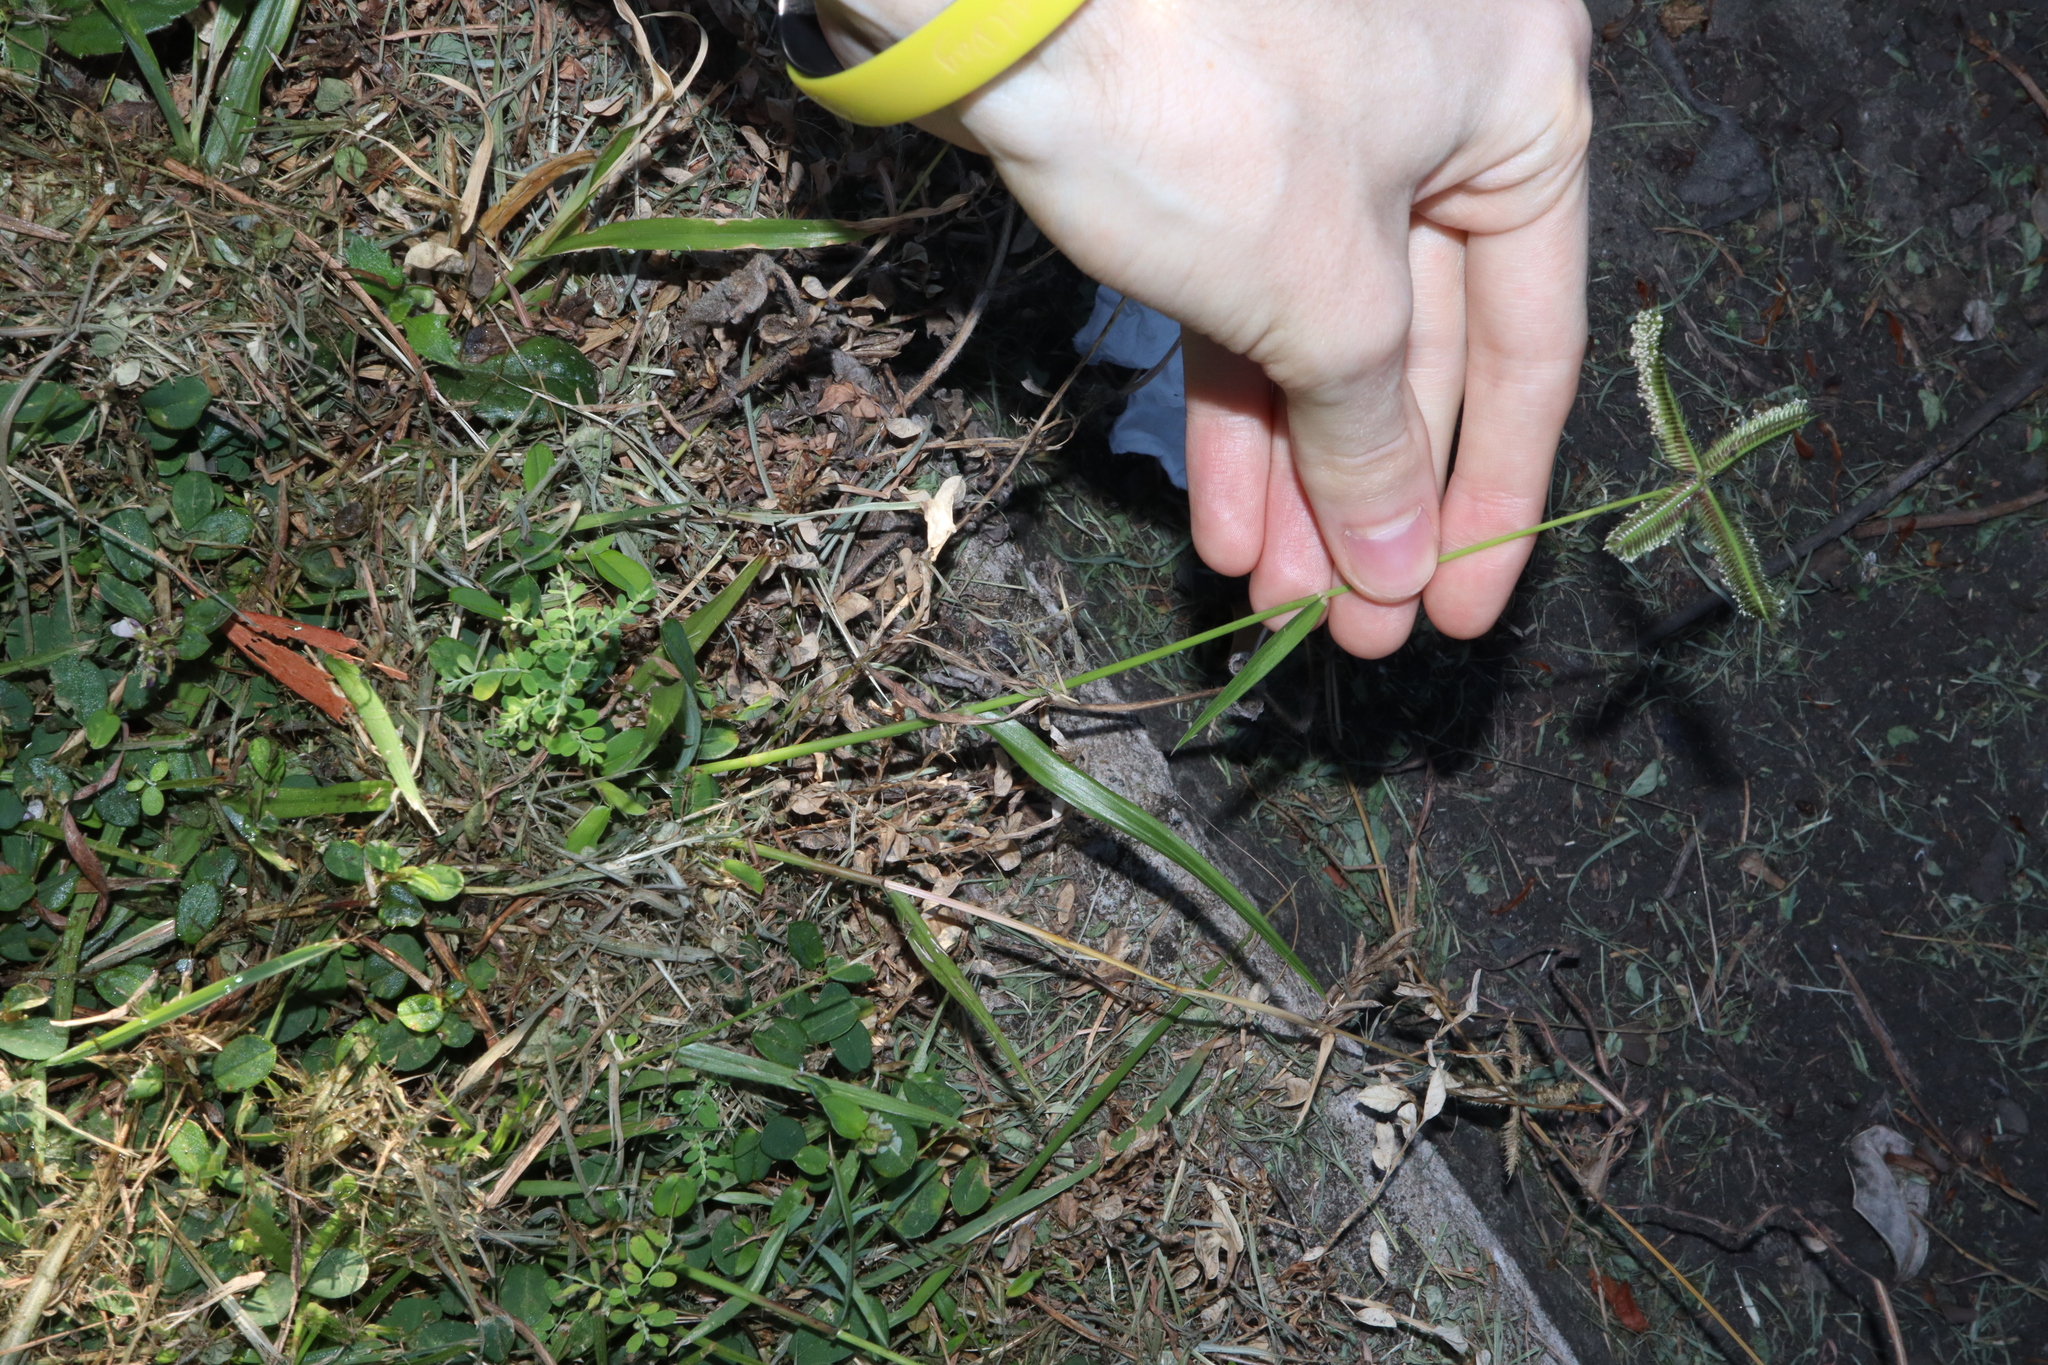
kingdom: Plantae
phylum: Tracheophyta
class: Liliopsida
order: Poales
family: Poaceae
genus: Dactyloctenium
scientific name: Dactyloctenium aegyptium
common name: Egyptian grass
